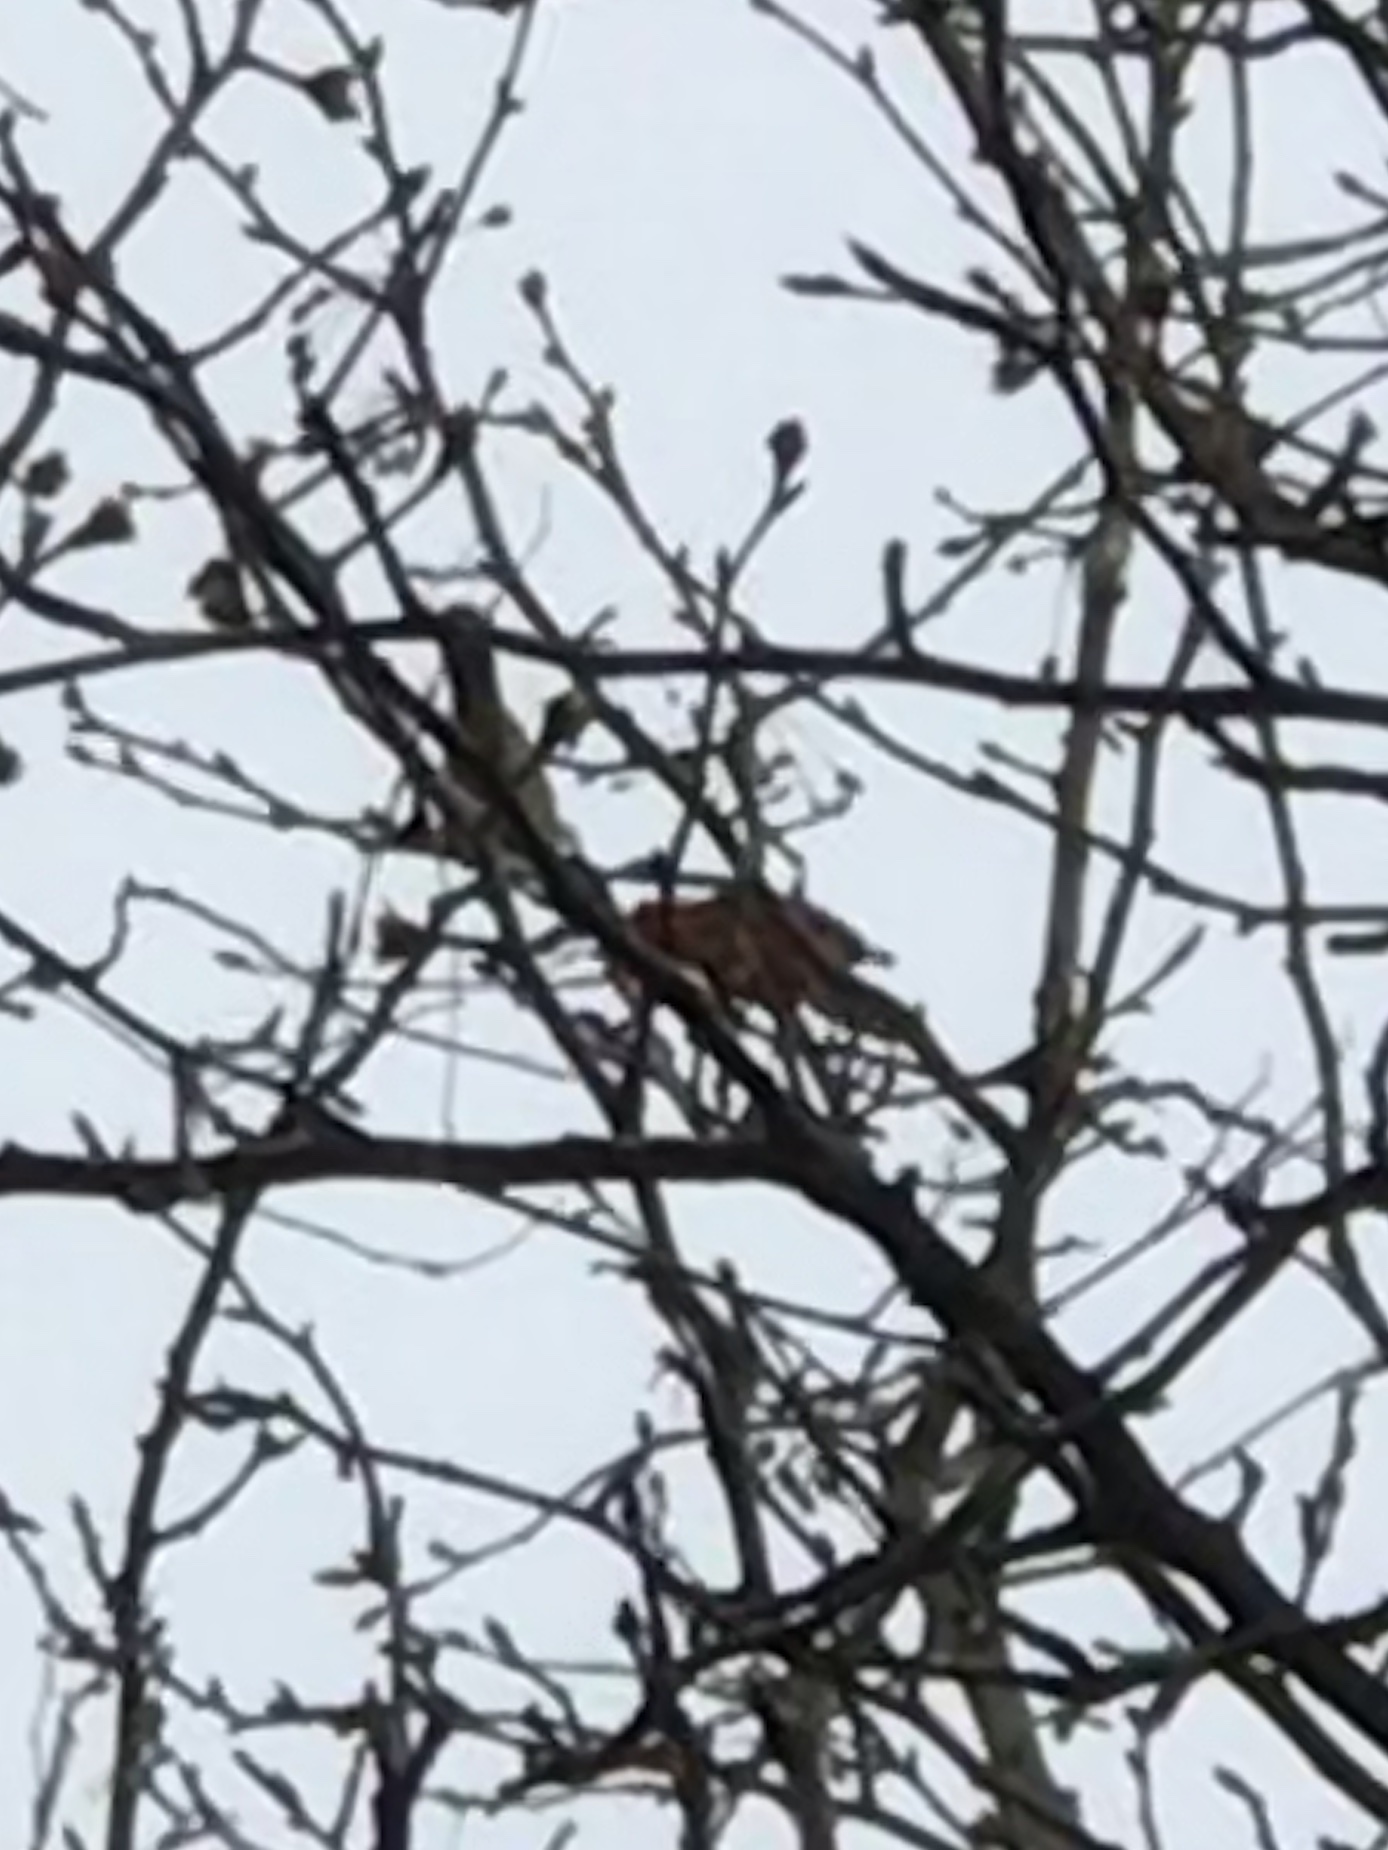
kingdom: Animalia
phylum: Chordata
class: Aves
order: Passeriformes
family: Cardinalidae
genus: Cardinalis
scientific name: Cardinalis cardinalis
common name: Northern cardinal
